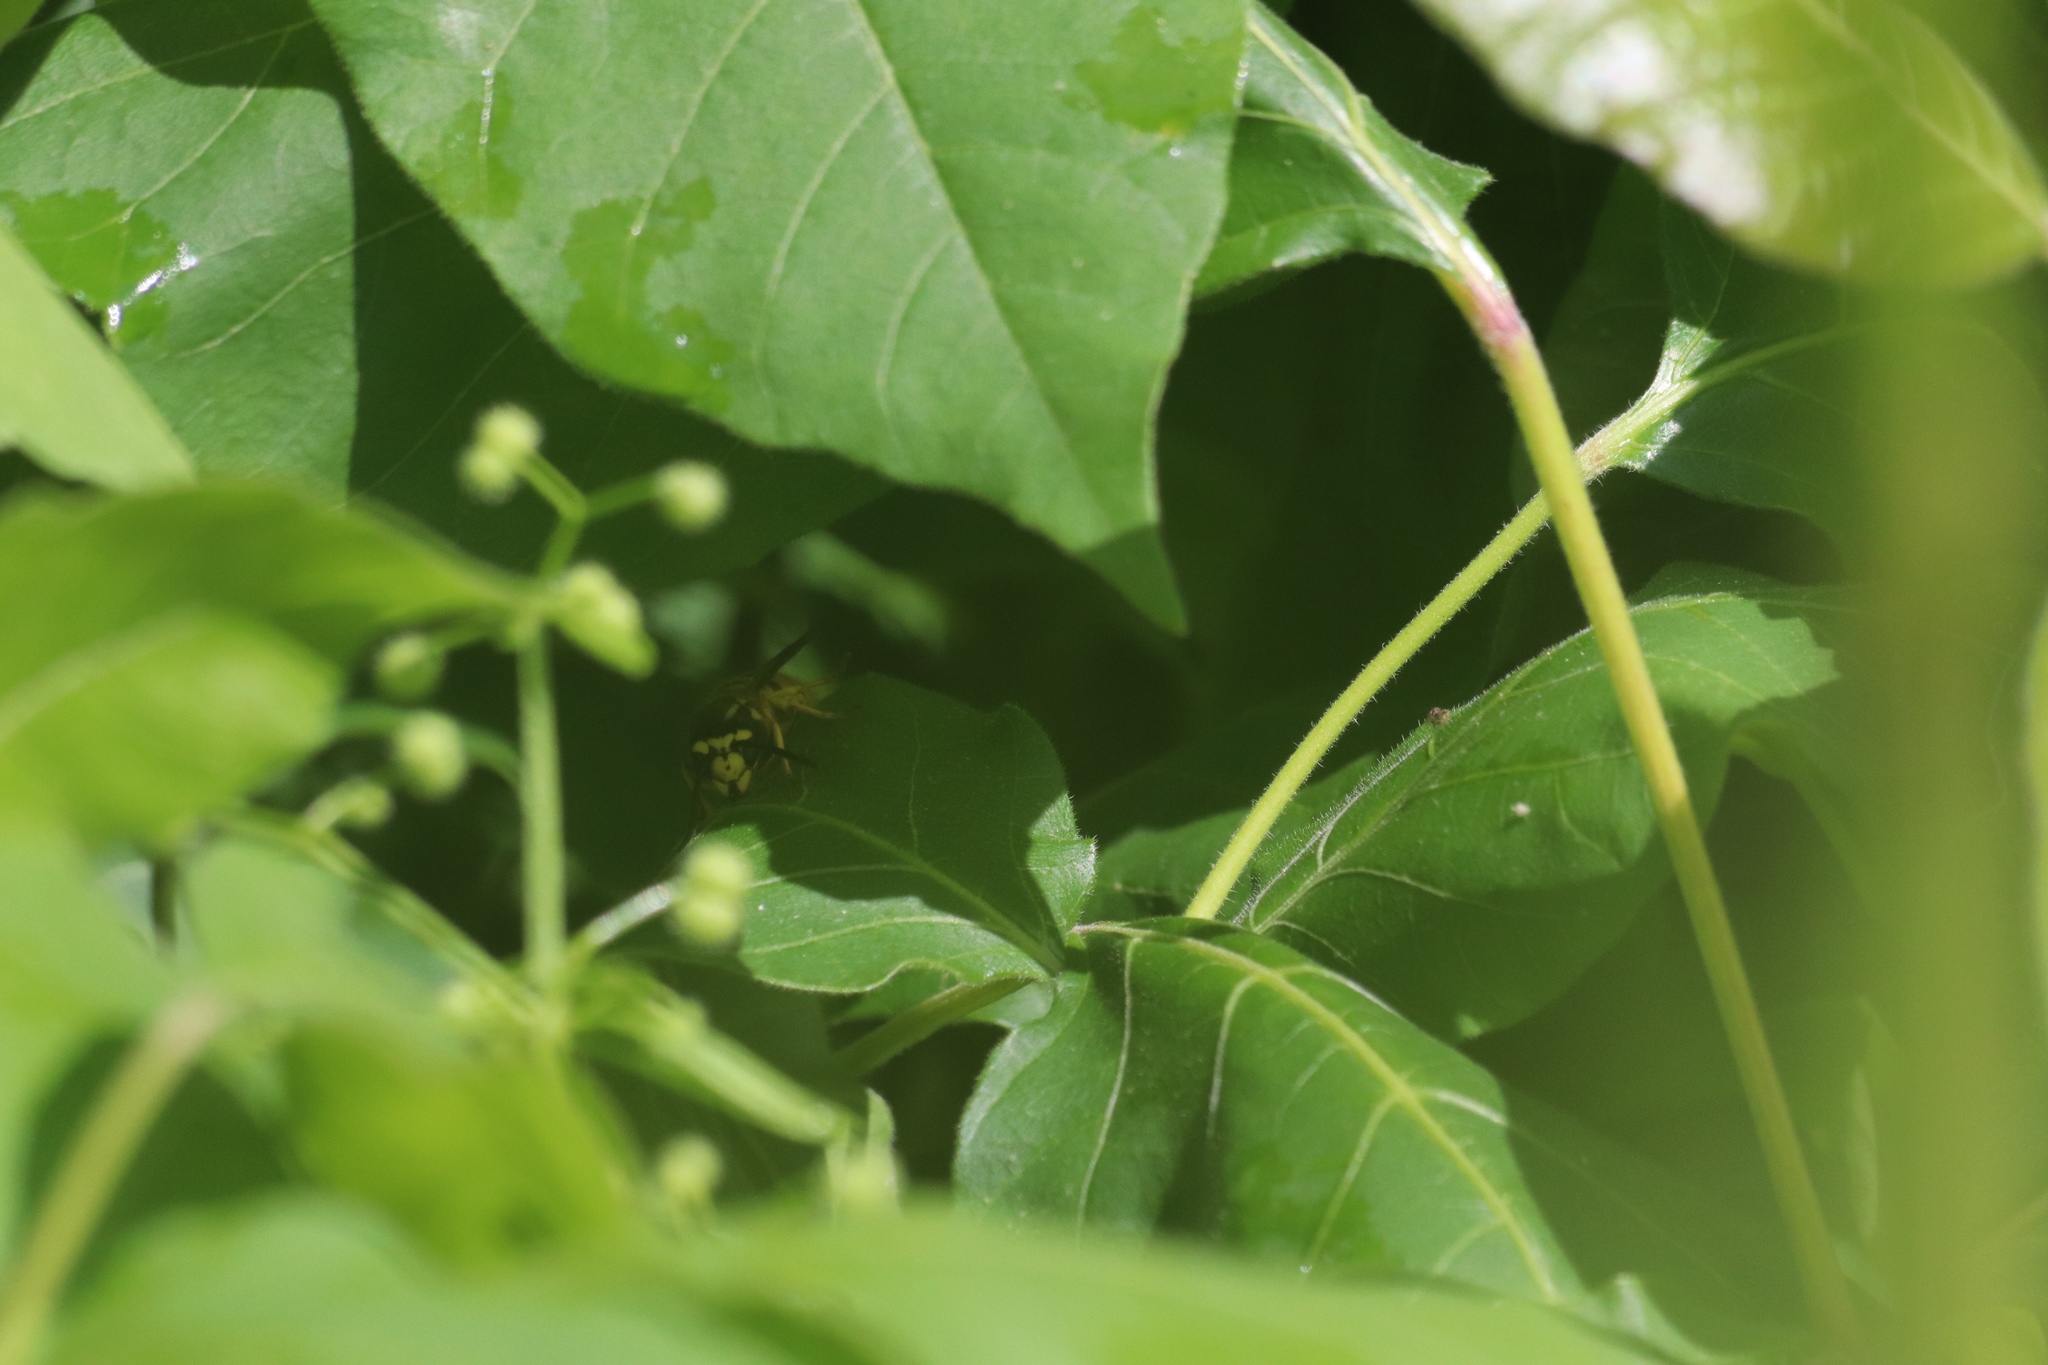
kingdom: Animalia
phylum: Arthropoda
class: Insecta
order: Hymenoptera
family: Vespidae
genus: Vespula
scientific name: Vespula maculifrons
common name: Eastern yellowjacket
